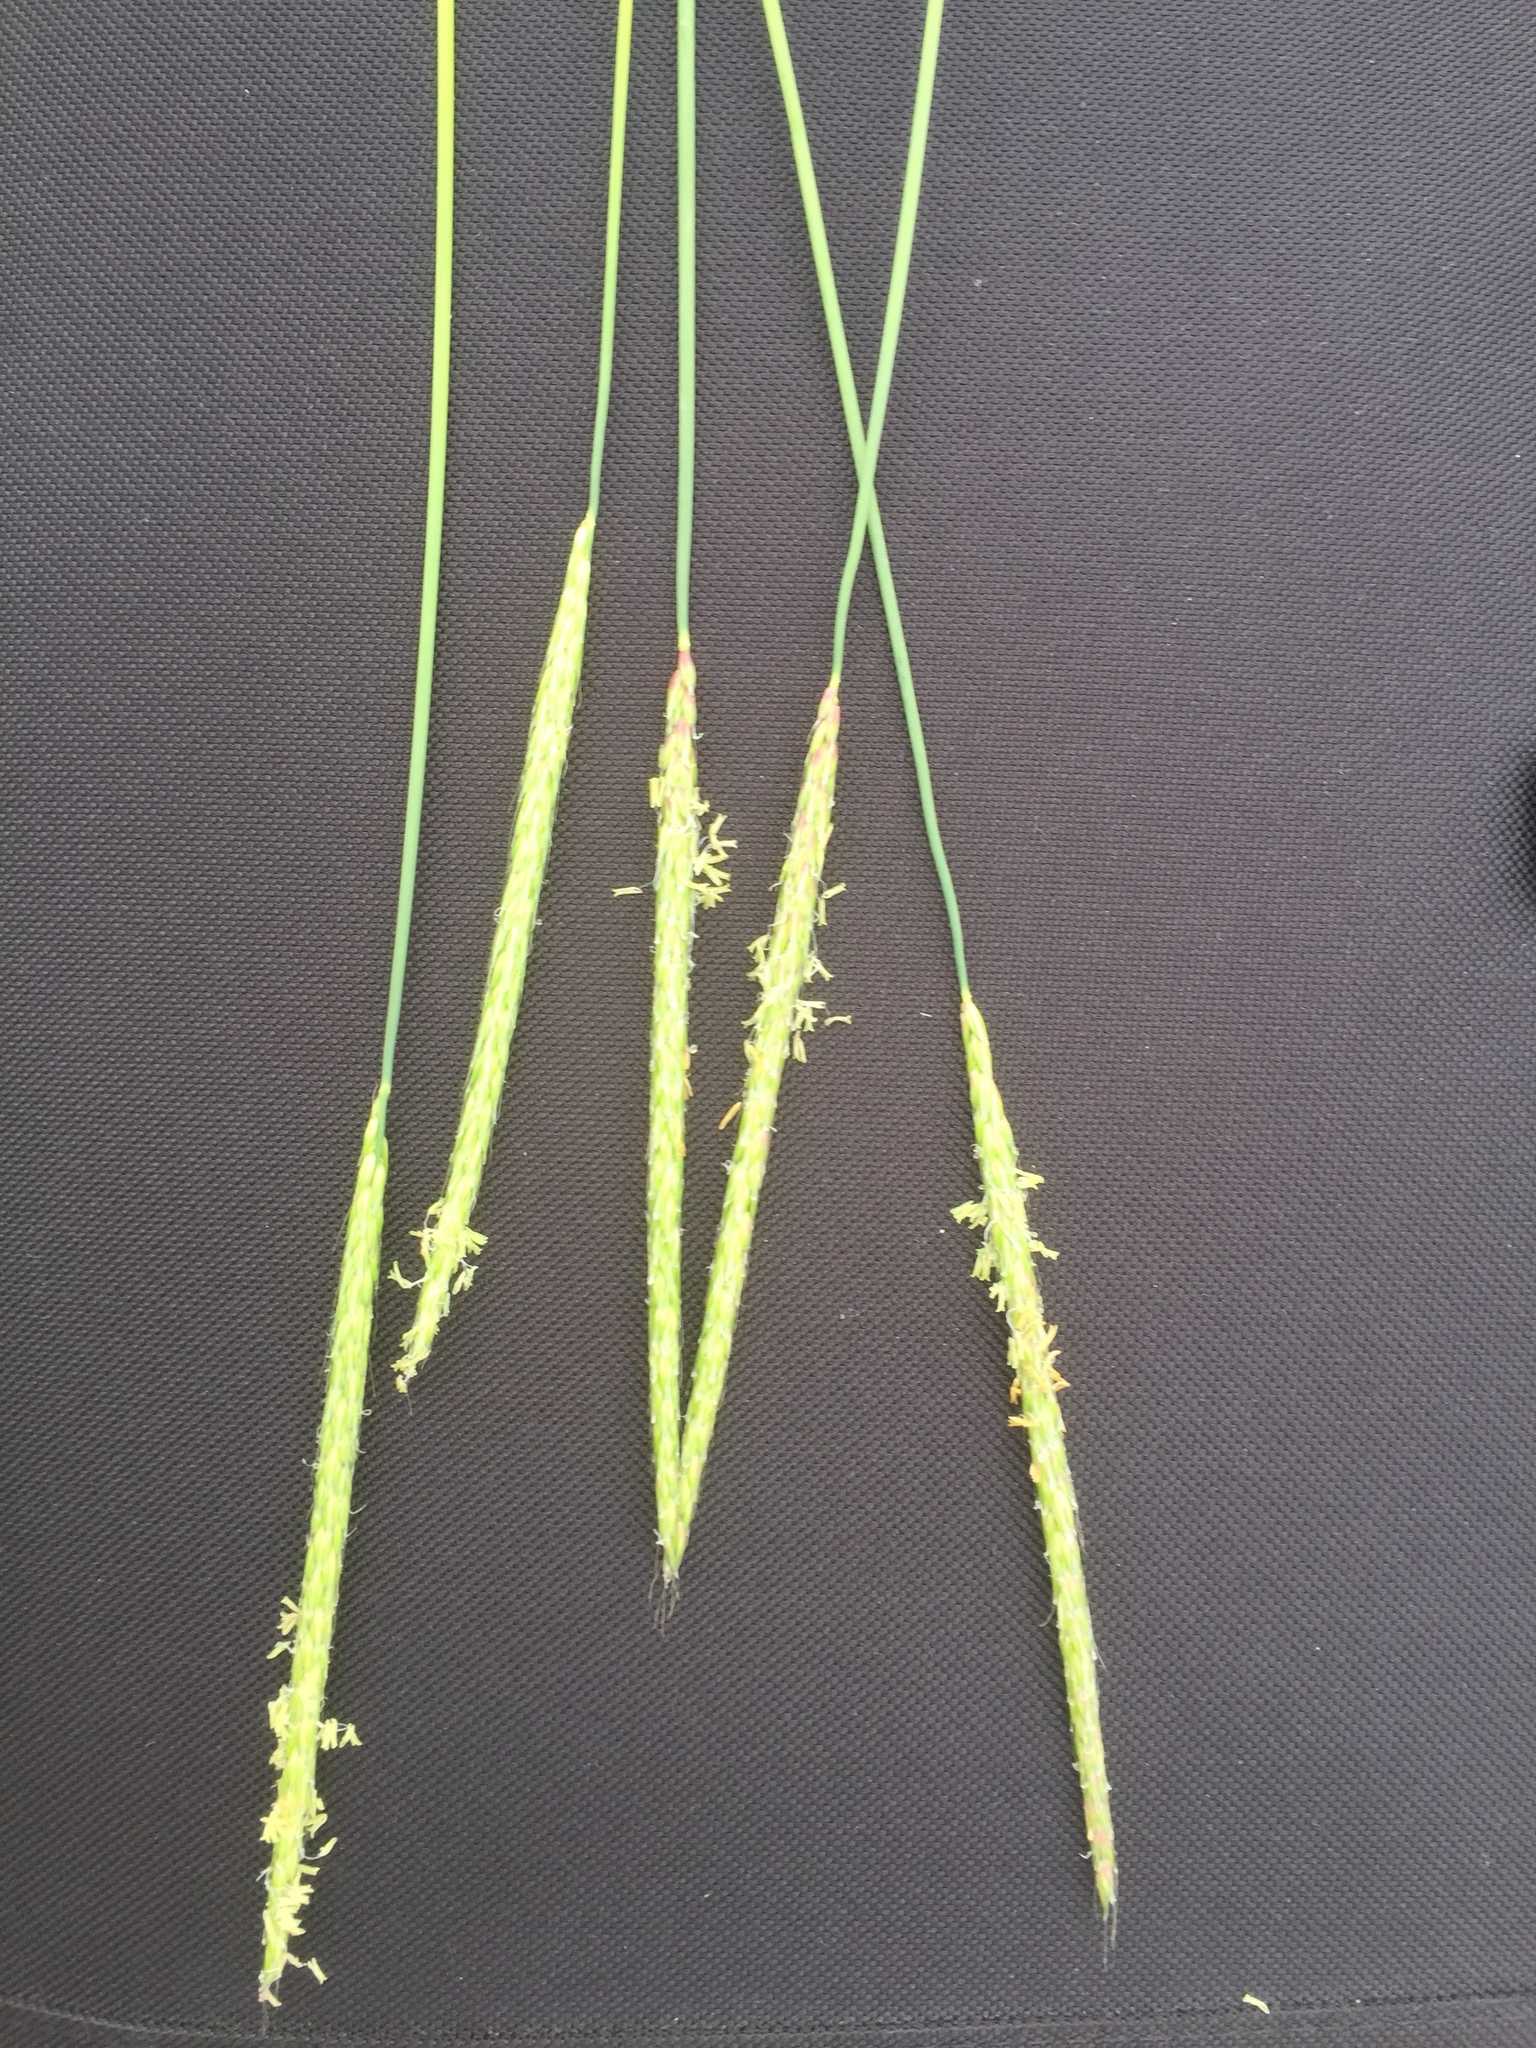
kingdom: Plantae
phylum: Tracheophyta
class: Liliopsida
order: Poales
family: Poaceae
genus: Alopecurus
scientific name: Alopecurus myosuroides
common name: Black-grass
